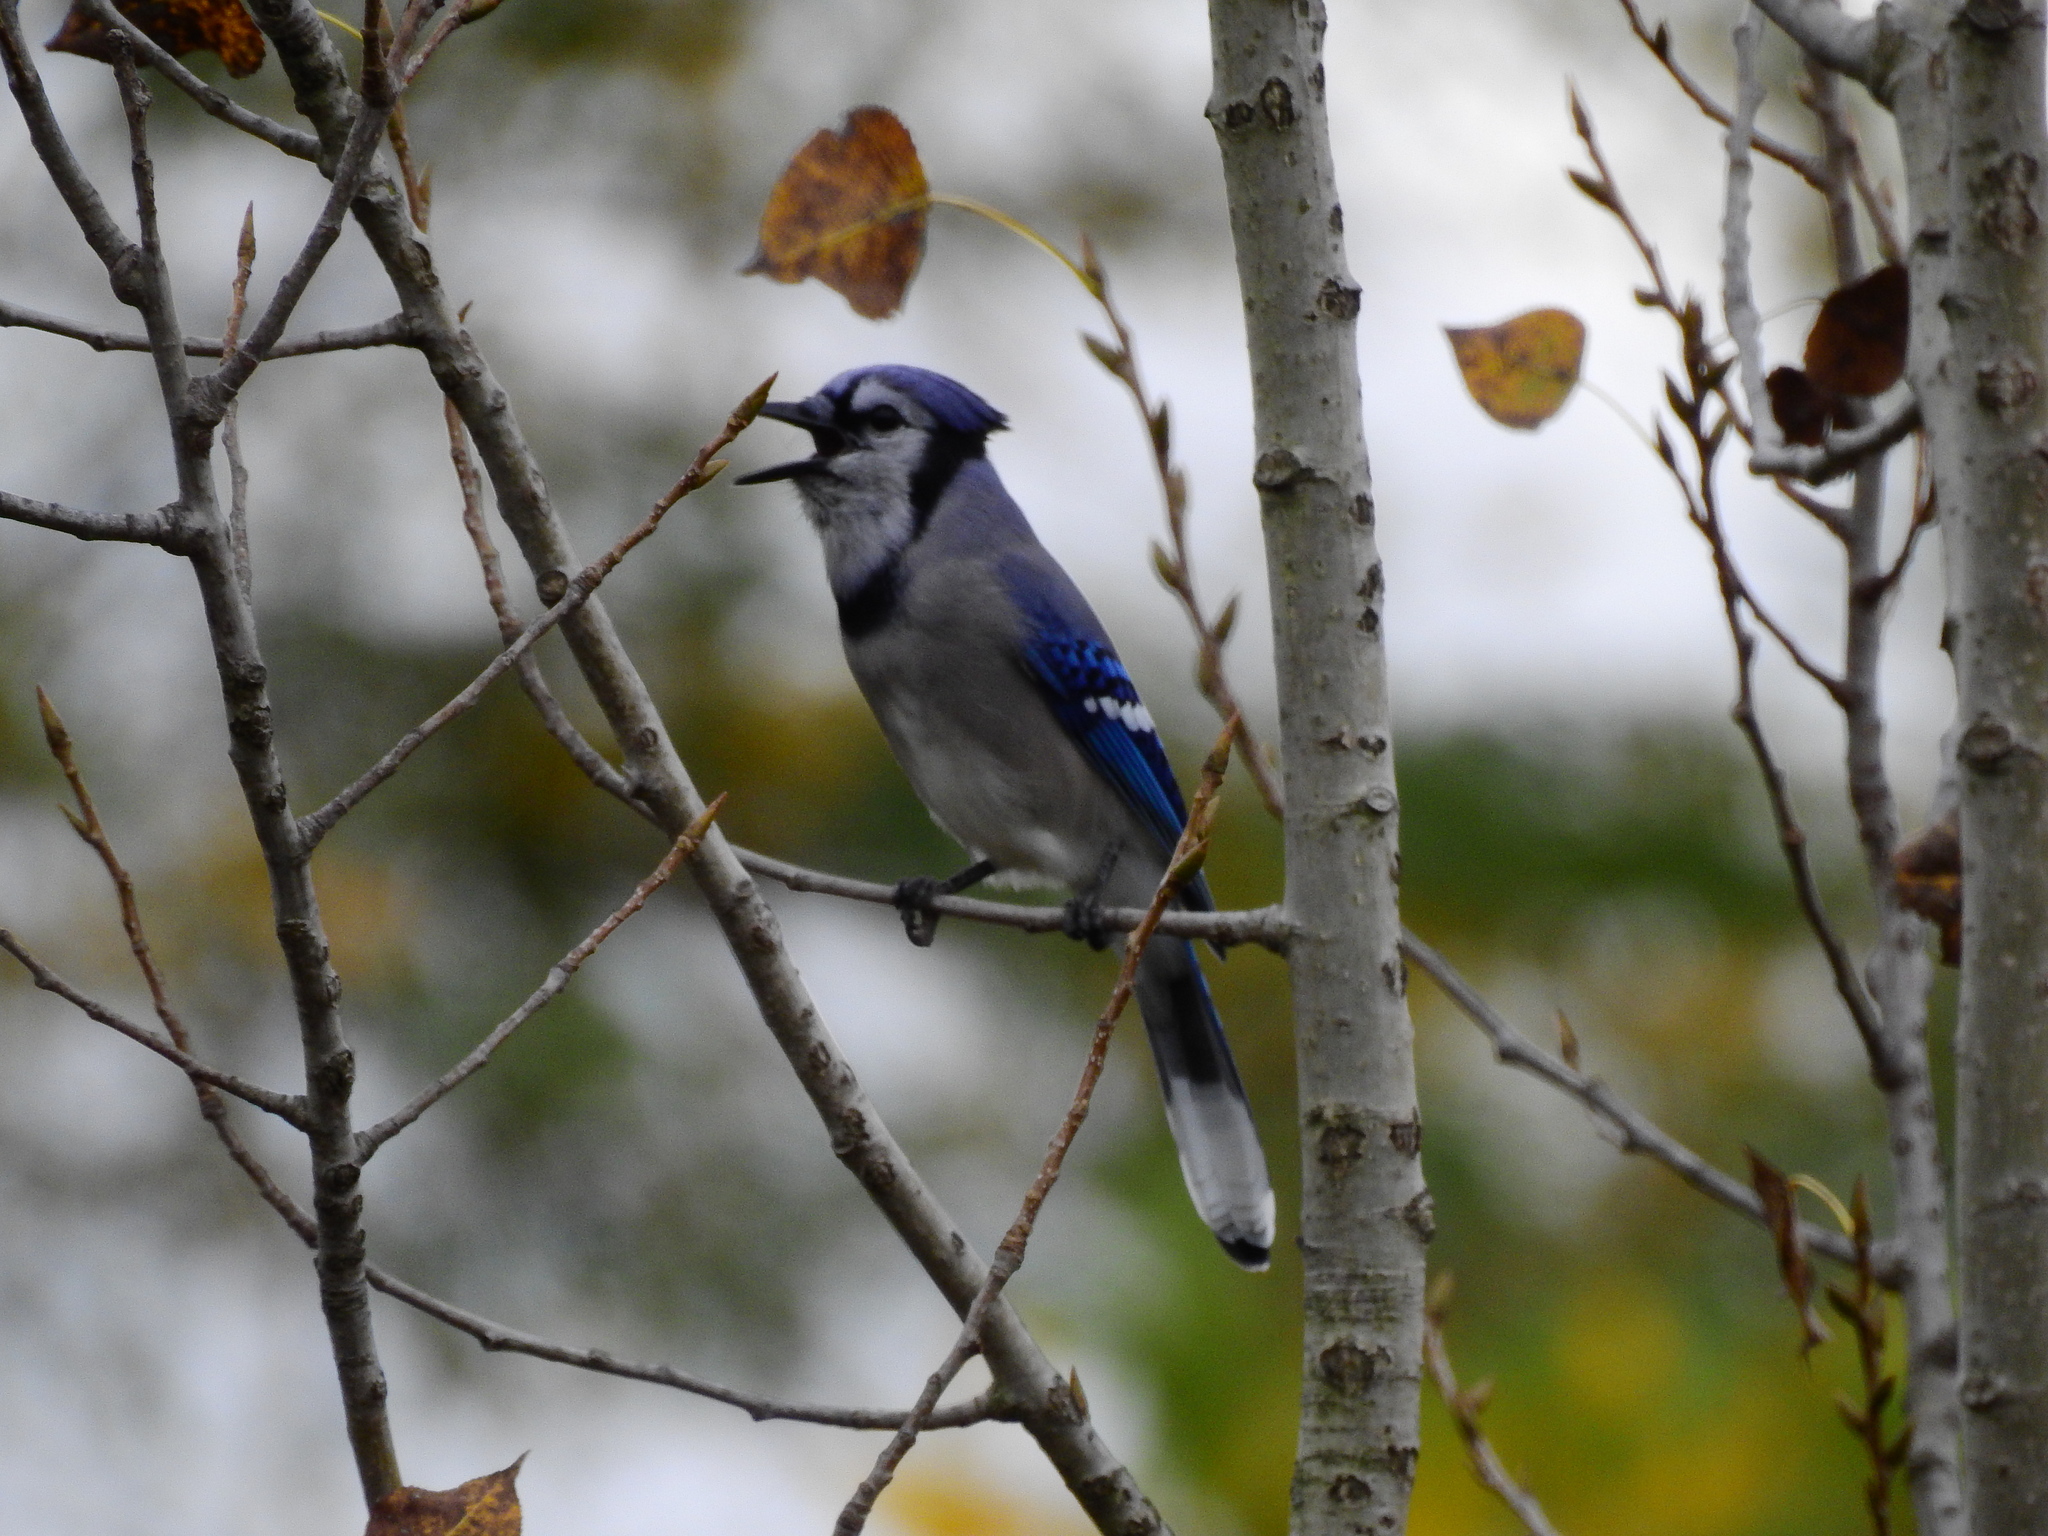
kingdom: Animalia
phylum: Chordata
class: Aves
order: Passeriformes
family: Corvidae
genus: Cyanocitta
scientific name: Cyanocitta cristata
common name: Blue jay
